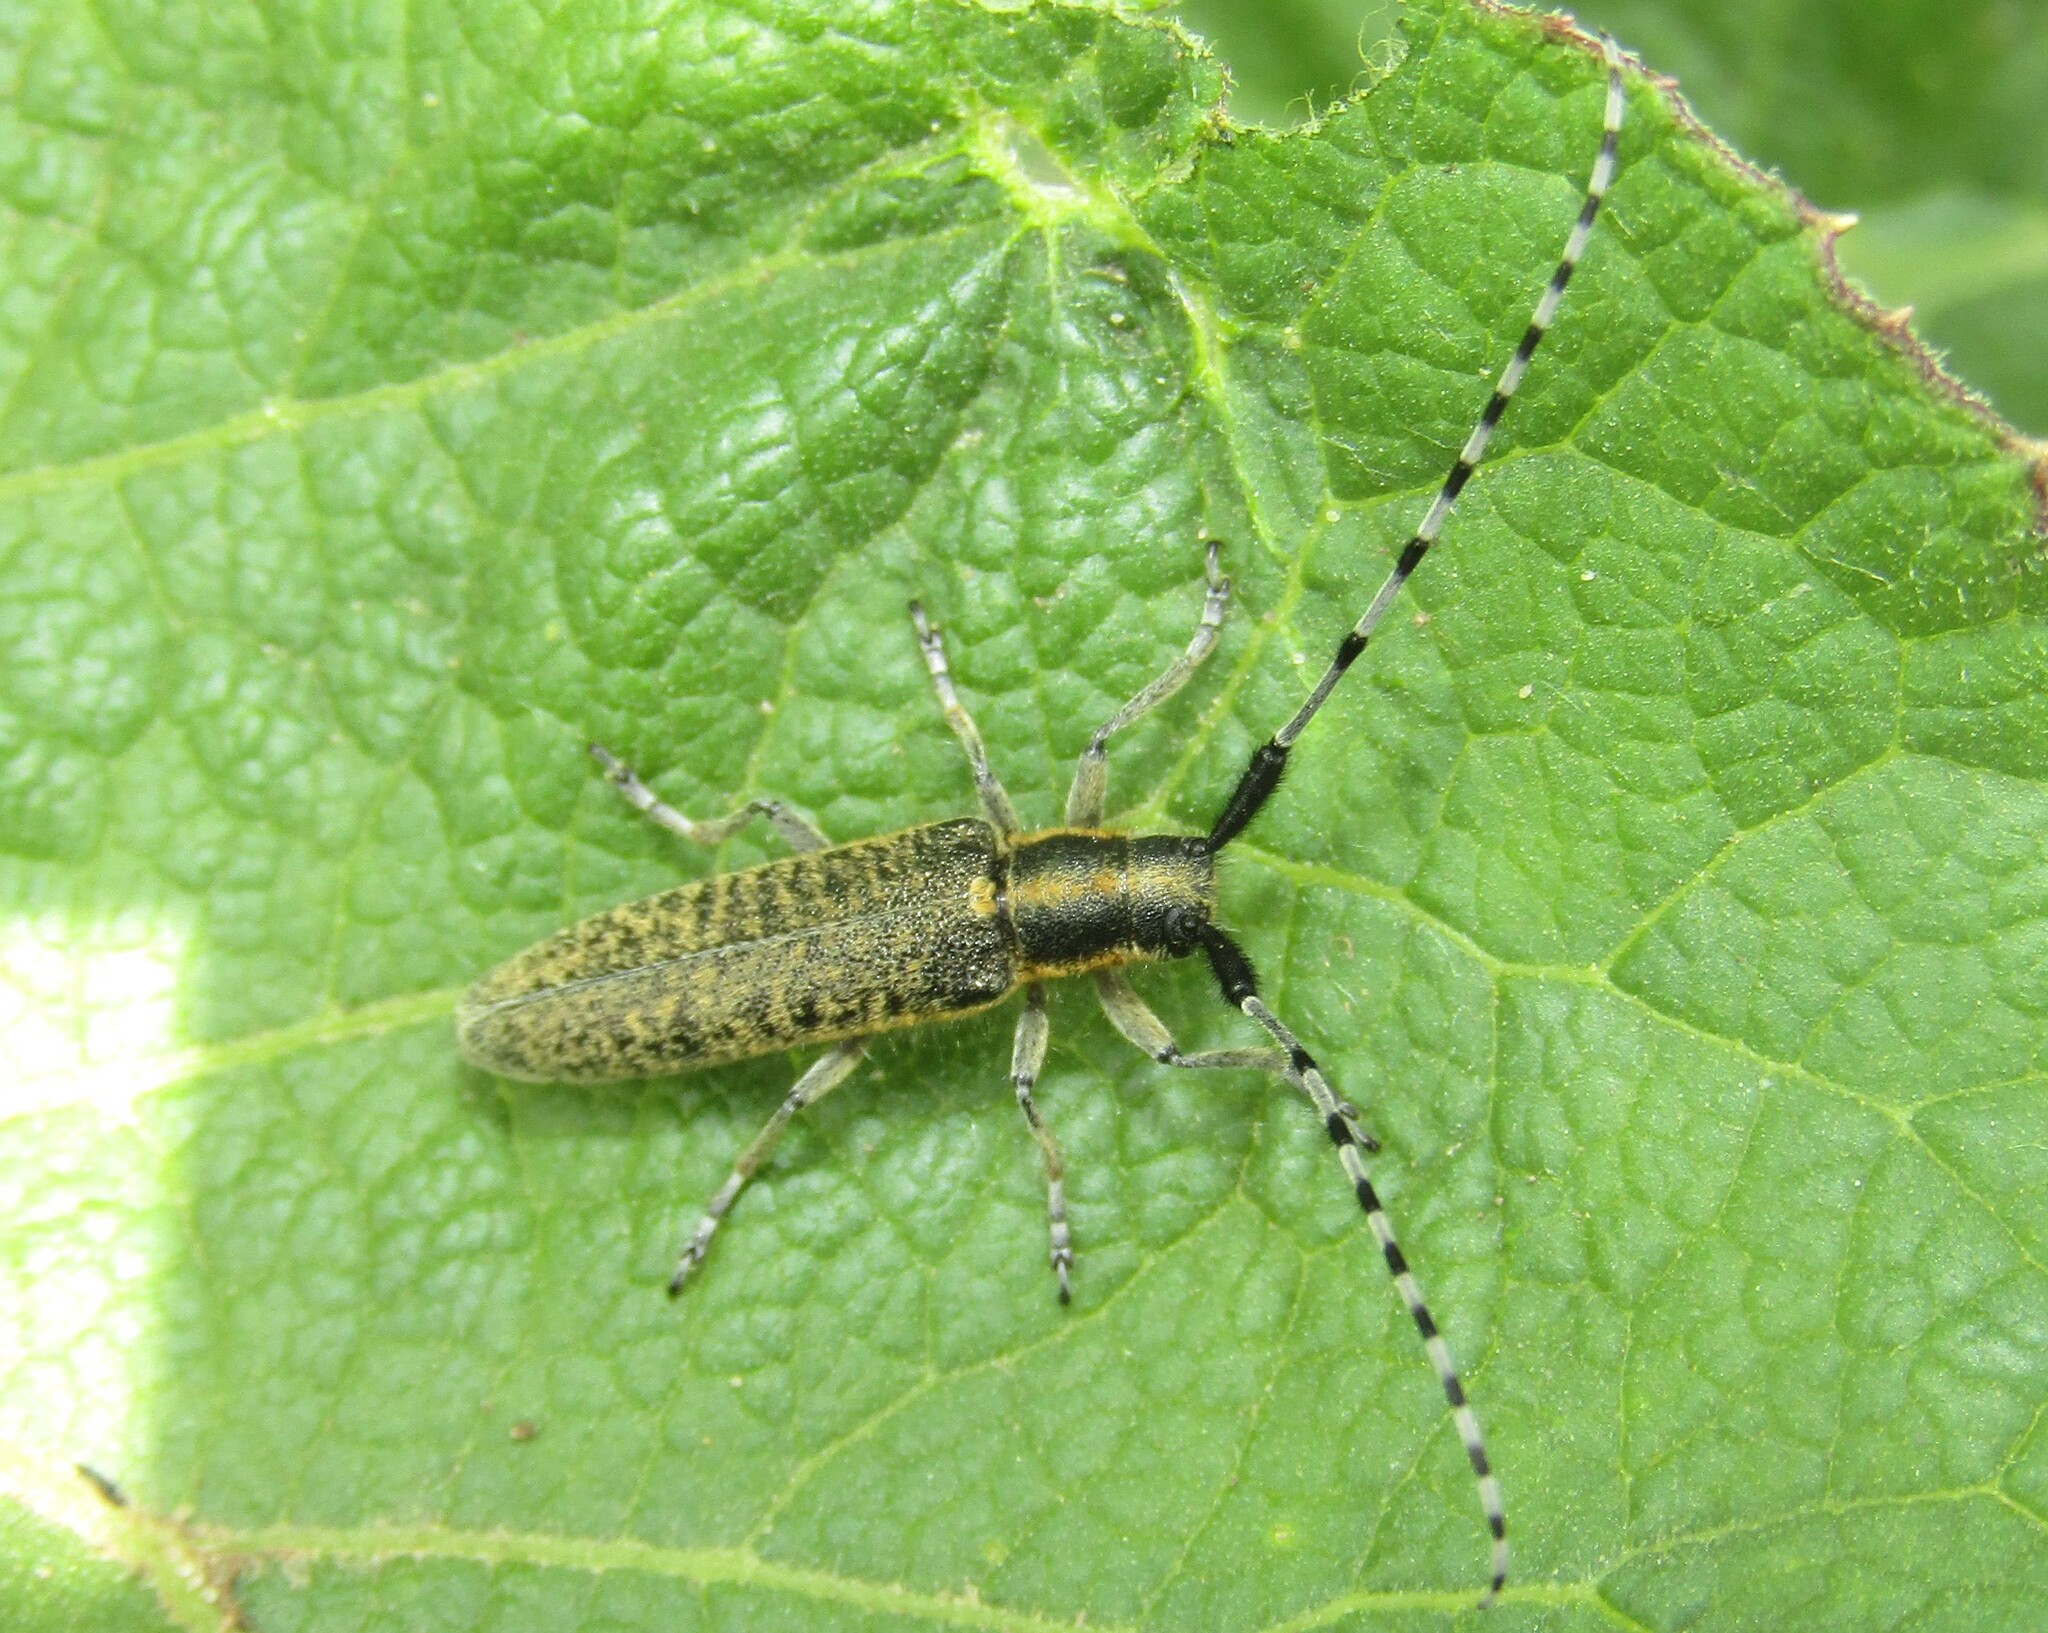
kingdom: Animalia
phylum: Arthropoda
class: Insecta
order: Coleoptera
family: Cerambycidae
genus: Agapanthia
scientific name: Agapanthia villosoviridescens
